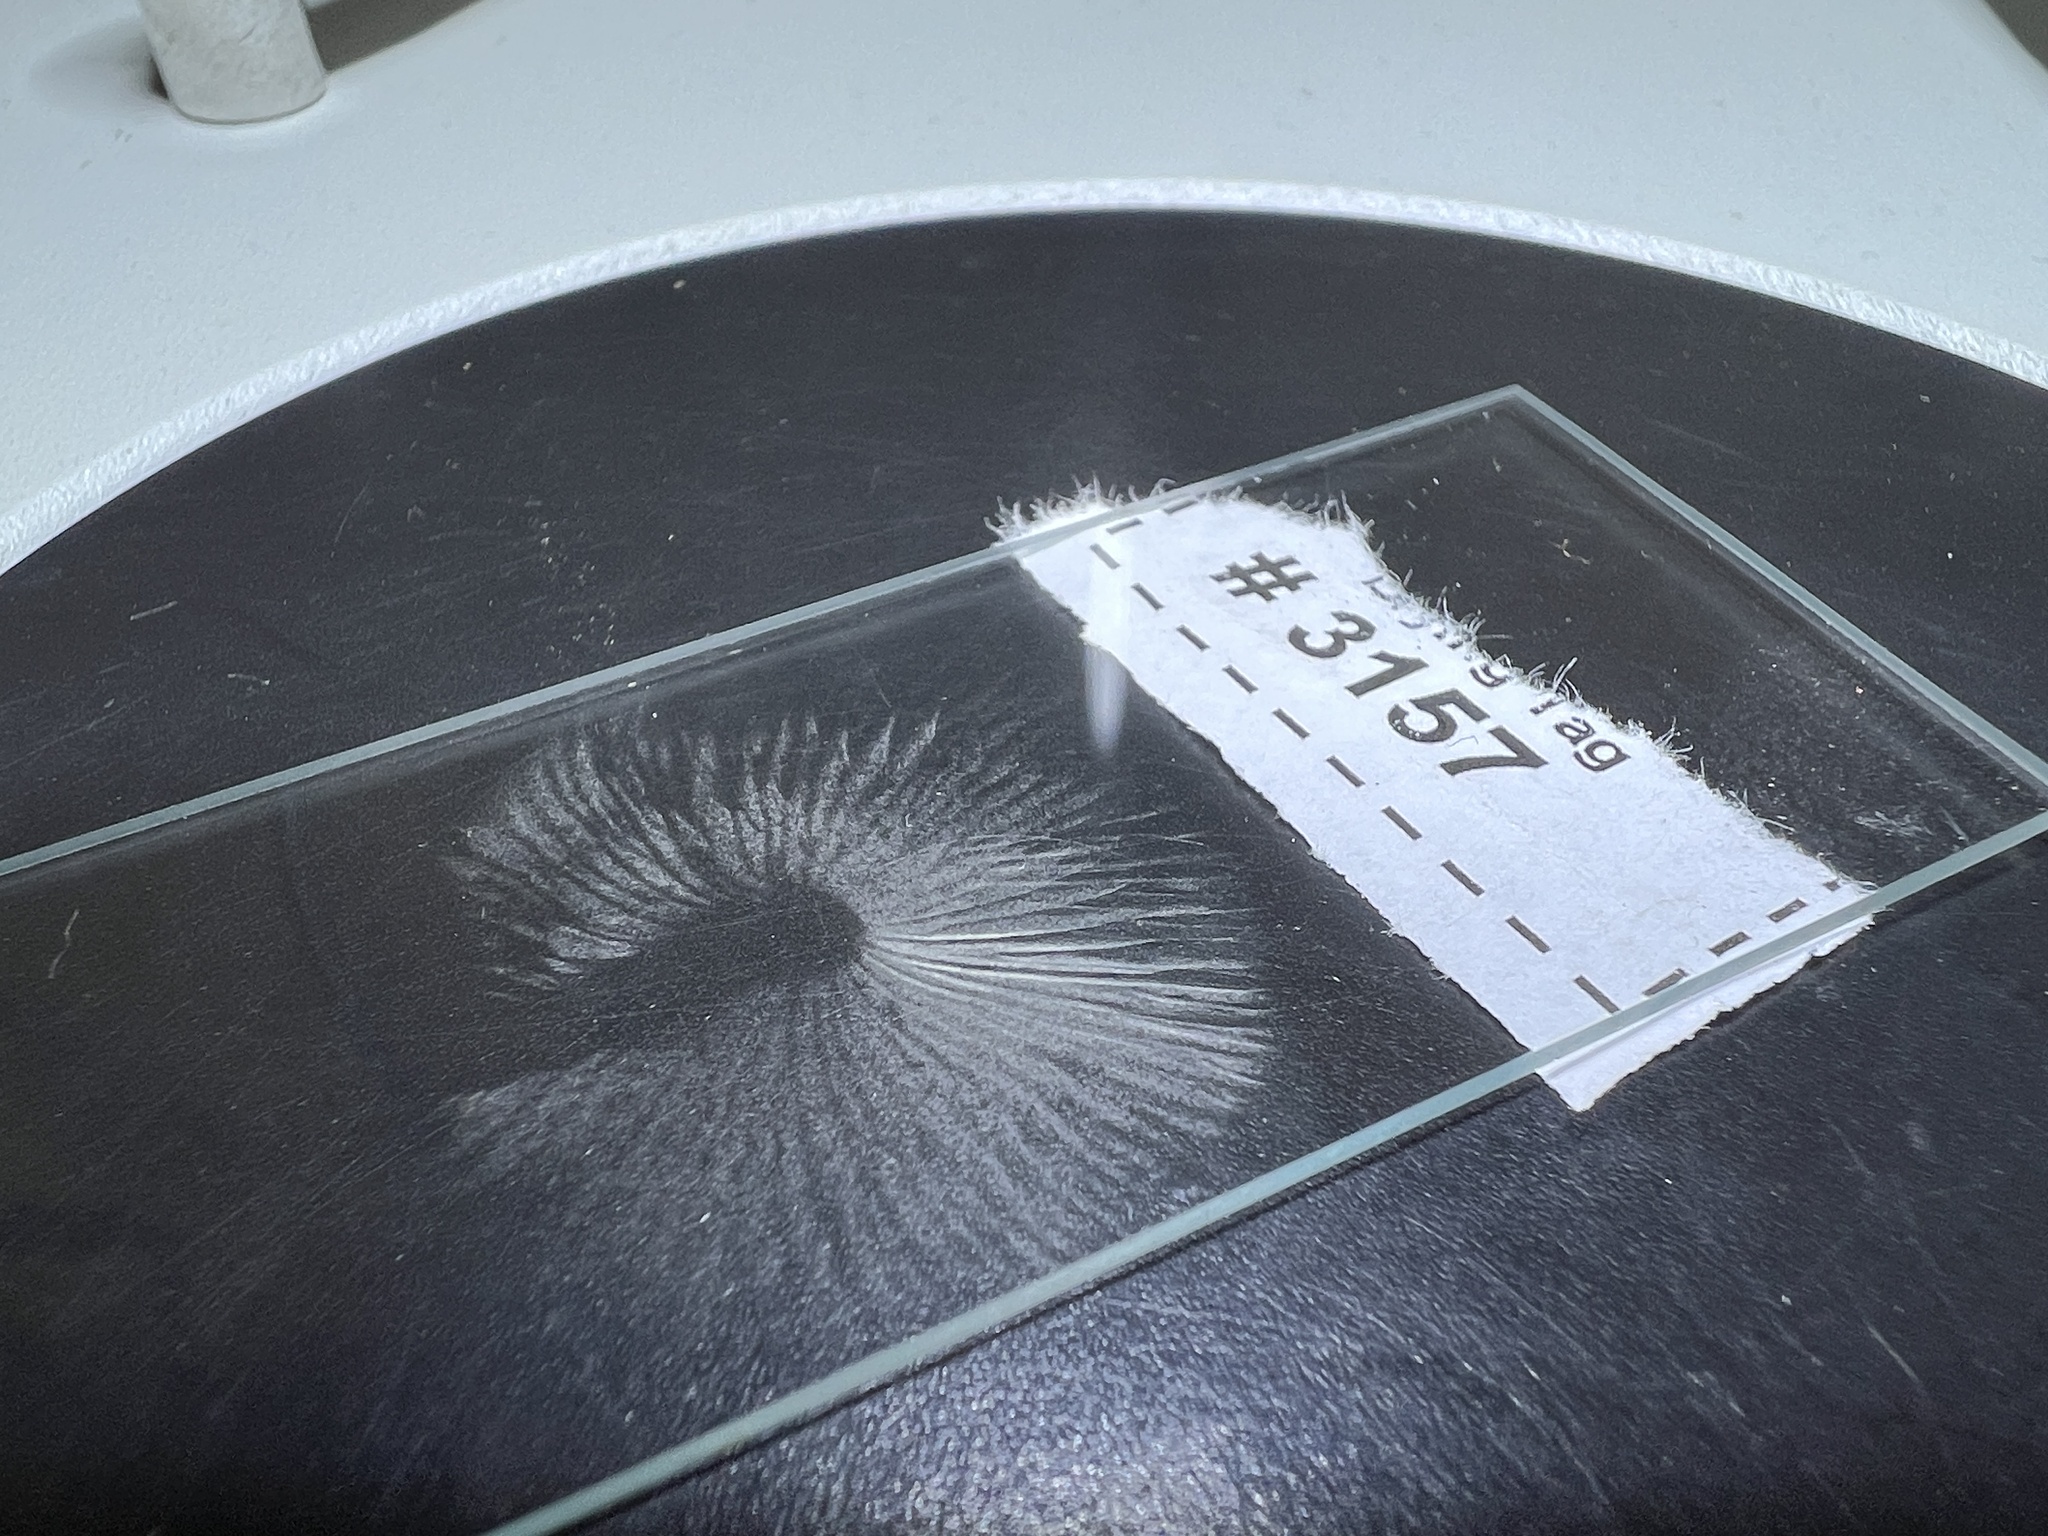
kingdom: Fungi
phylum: Basidiomycota
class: Agaricomycetes
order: Agaricales
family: Agaricaceae
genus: Lepiota
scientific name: Lepiota maculans
